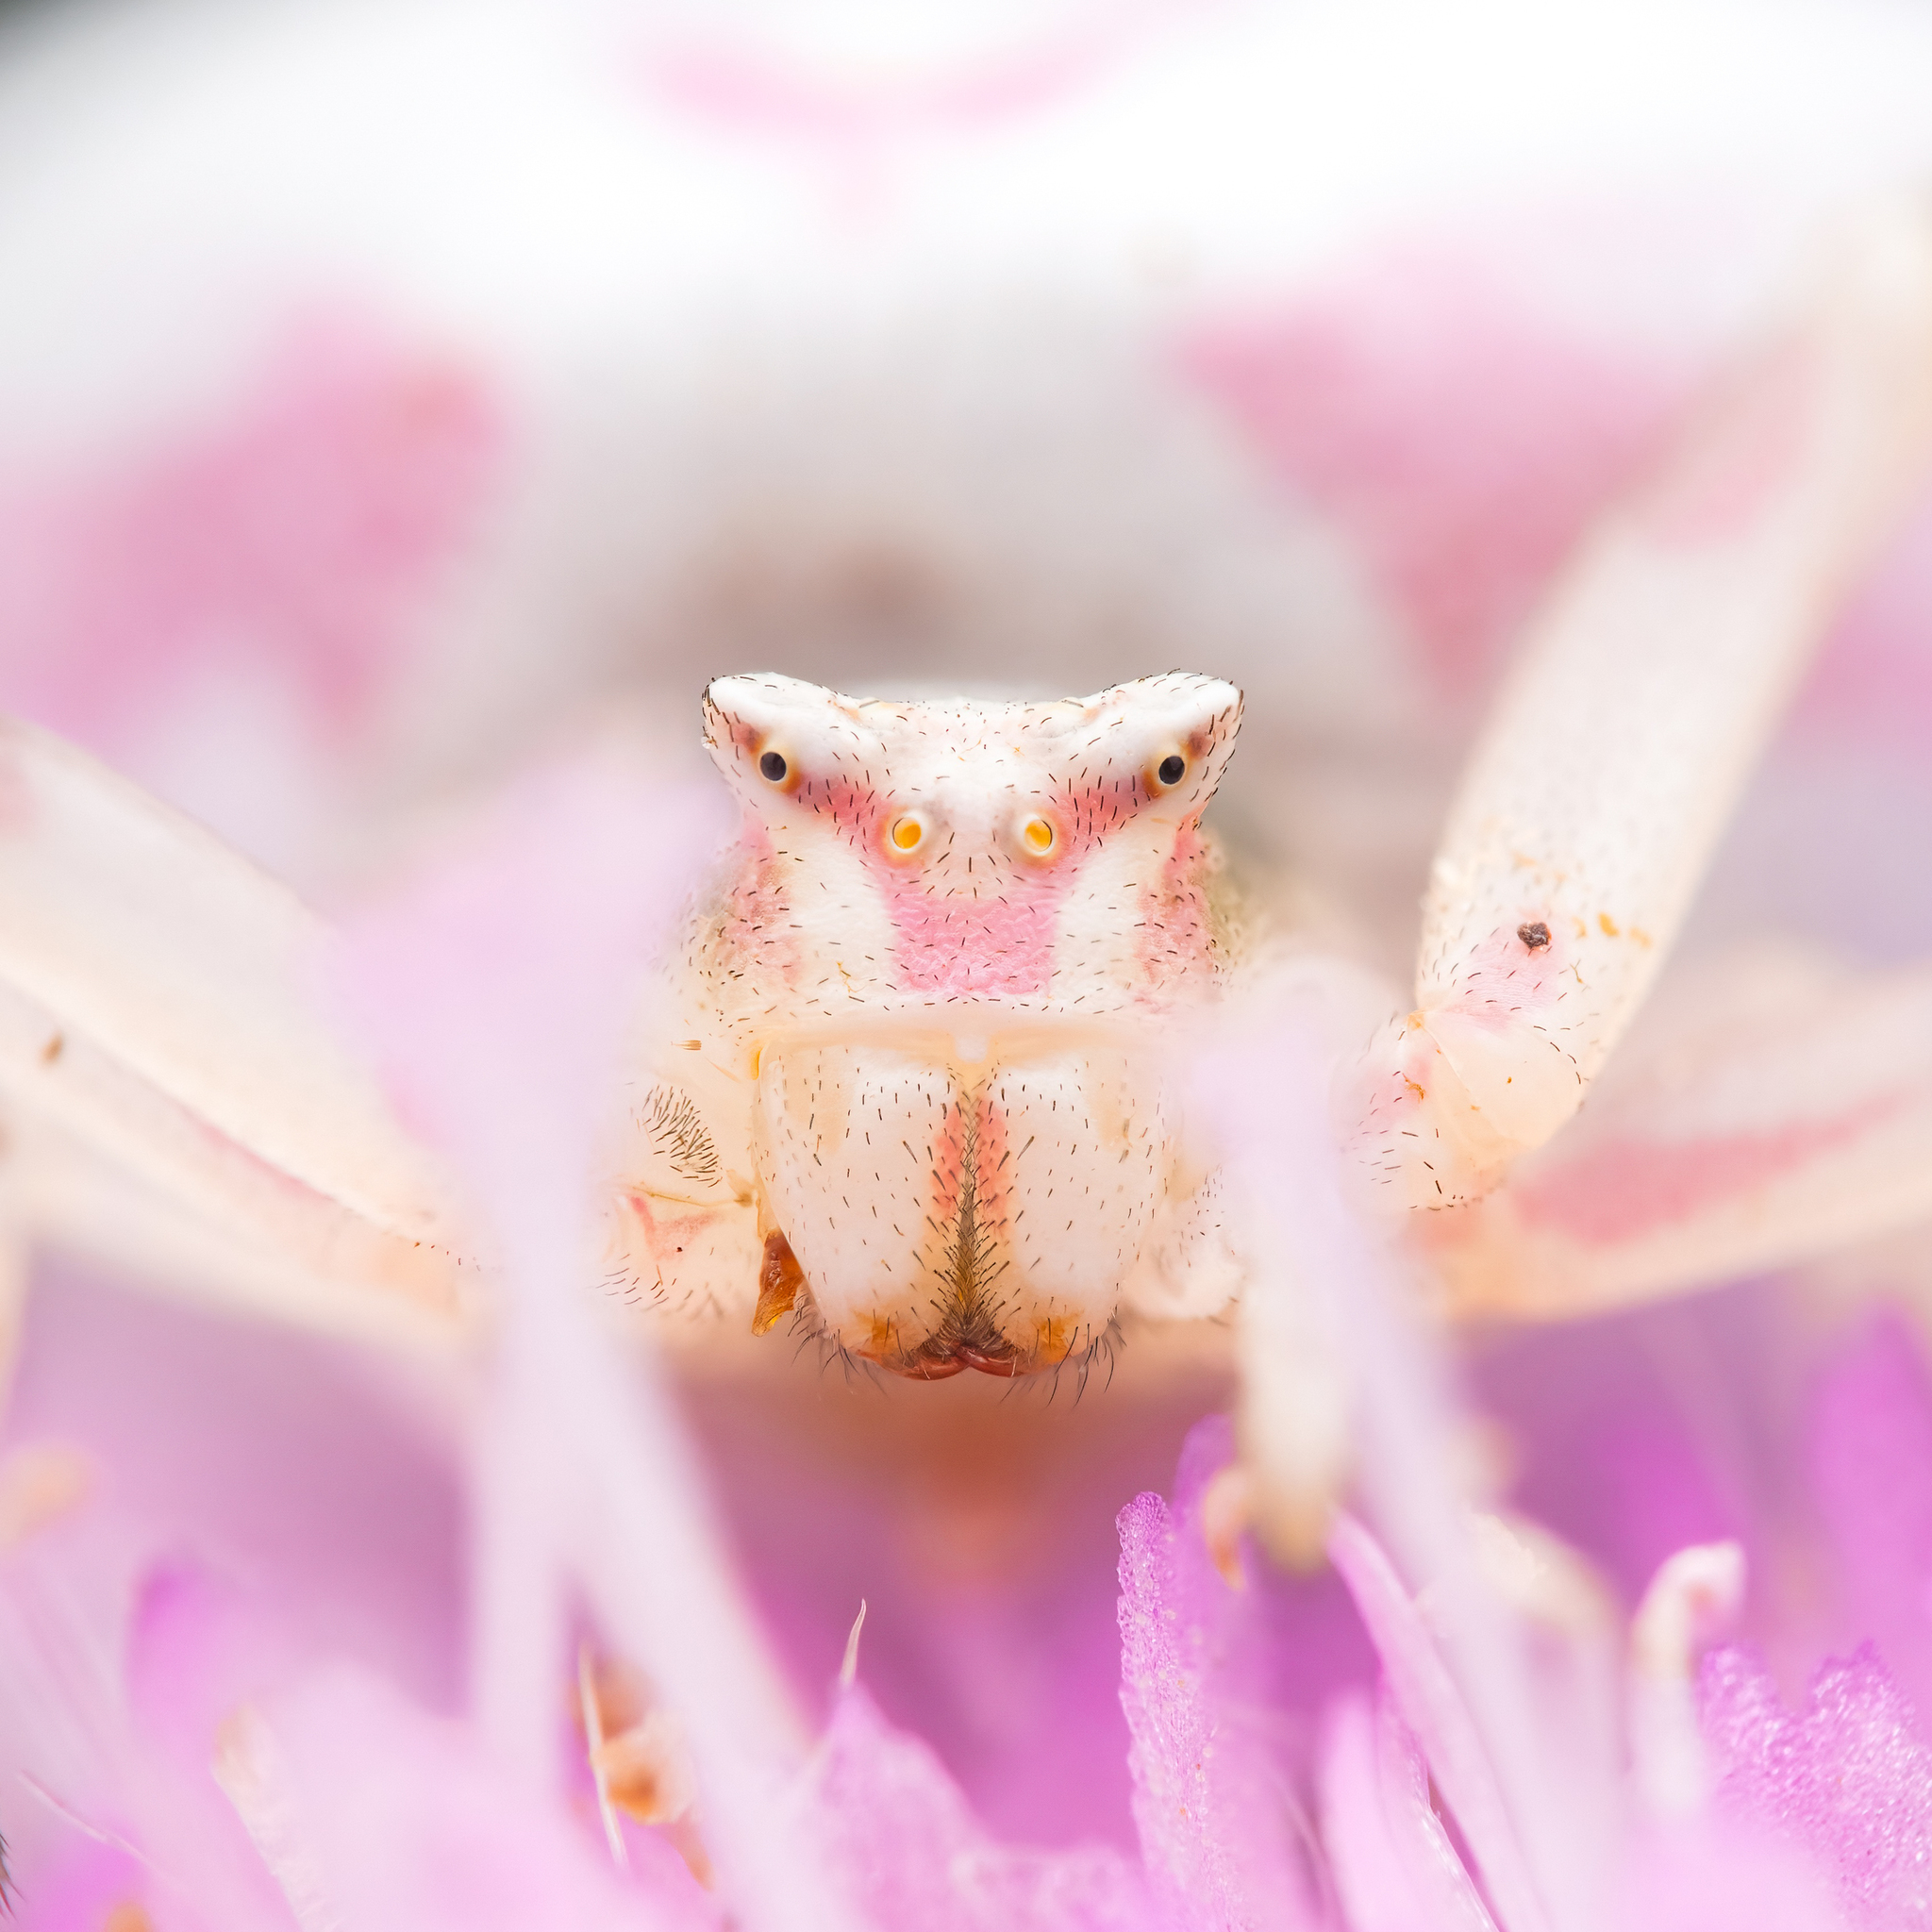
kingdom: Animalia
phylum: Arthropoda
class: Arachnida
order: Araneae
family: Thomisidae
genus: Thomisus
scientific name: Thomisus onustus
